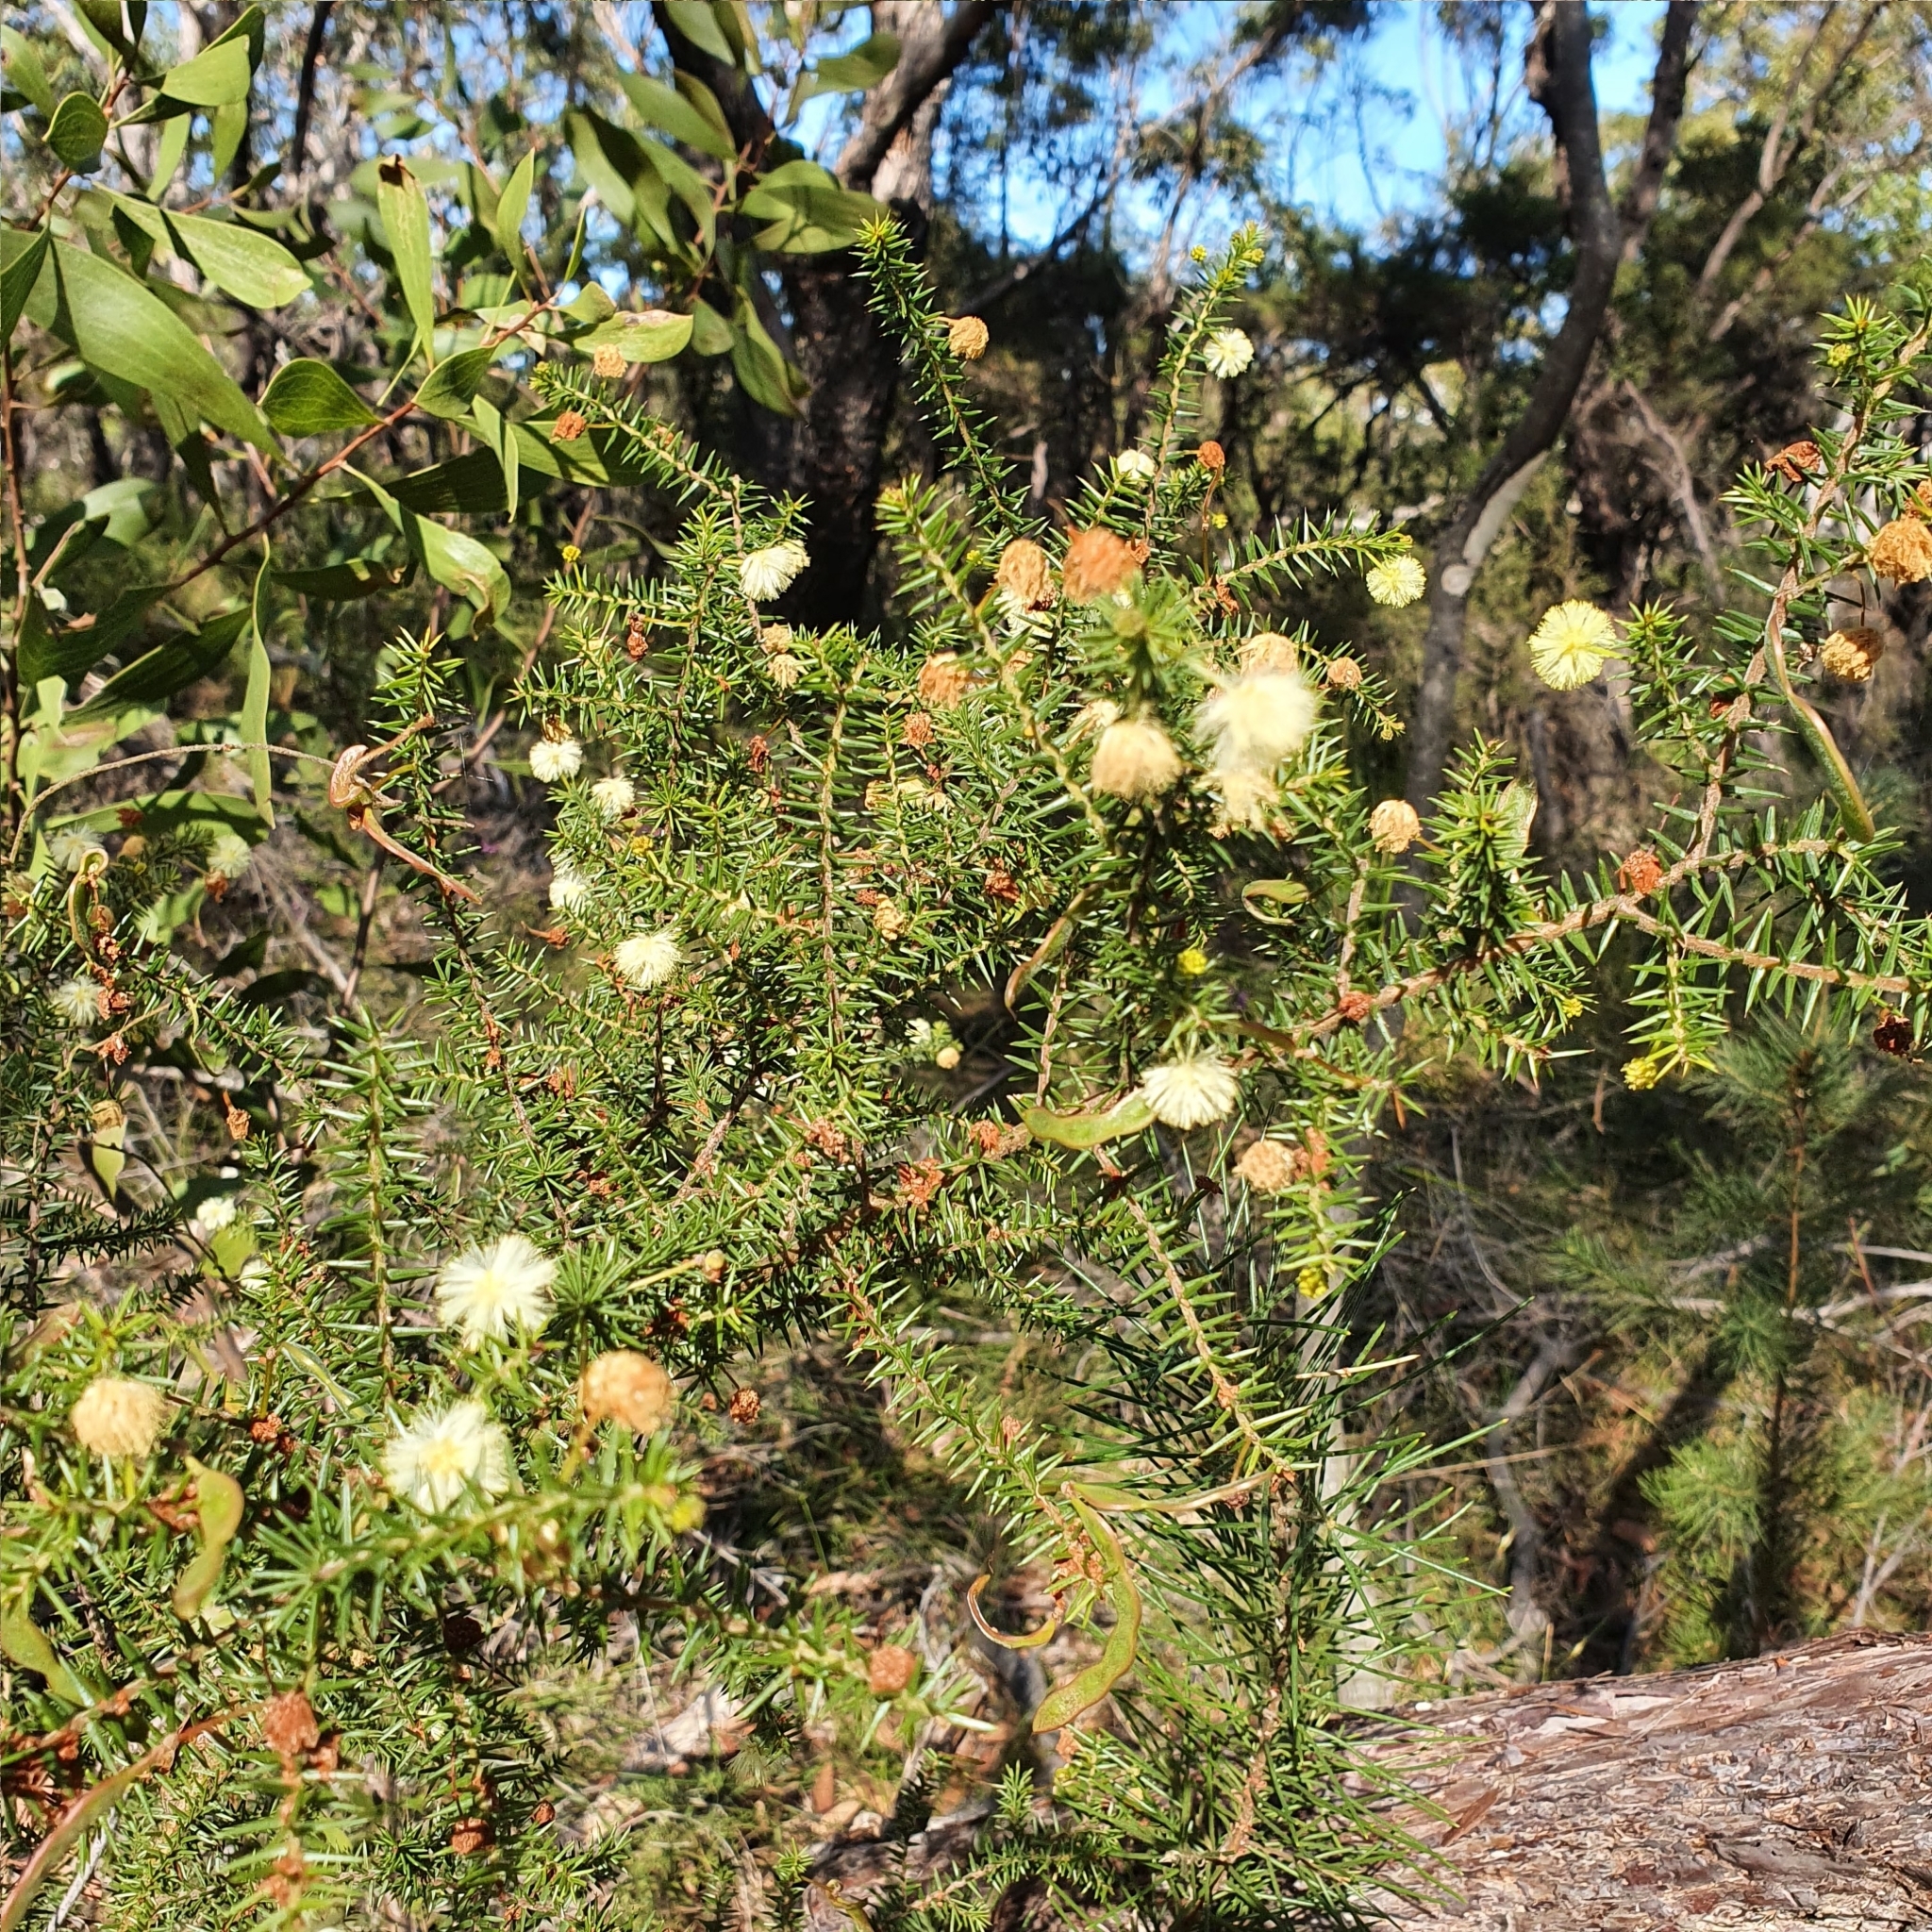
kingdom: Plantae
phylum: Tracheophyta
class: Magnoliopsida
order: Fabales
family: Fabaceae
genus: Acacia
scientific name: Acacia ulicifolia
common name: Juniper wattle
